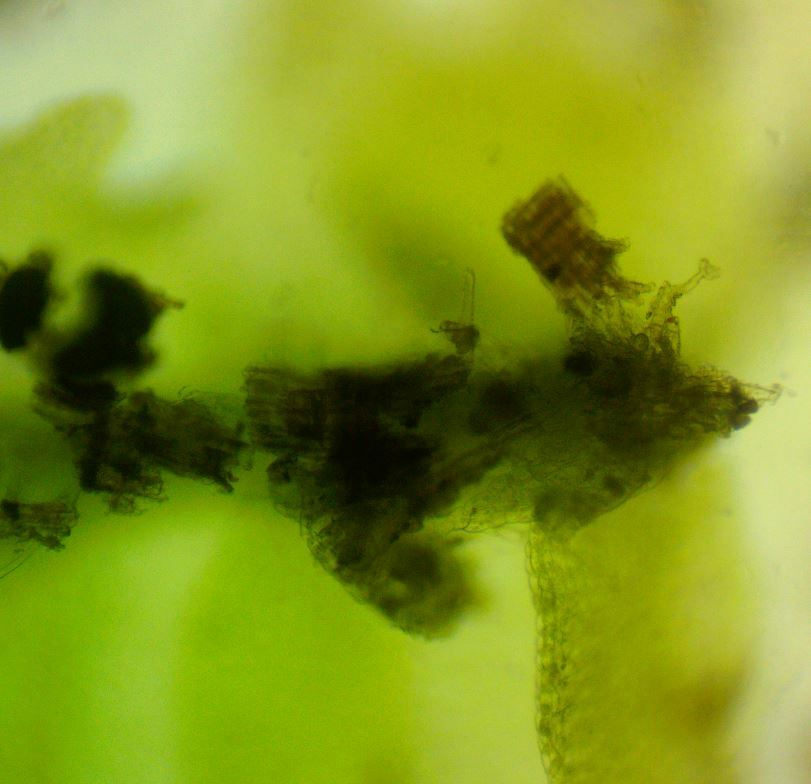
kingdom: Plantae
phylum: Marchantiophyta
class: Jungermanniopsida
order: Jungermanniales
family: Lophocoleaceae
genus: Lophocolea
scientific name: Lophocolea heterophylla
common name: Variable-leaved crestwort
